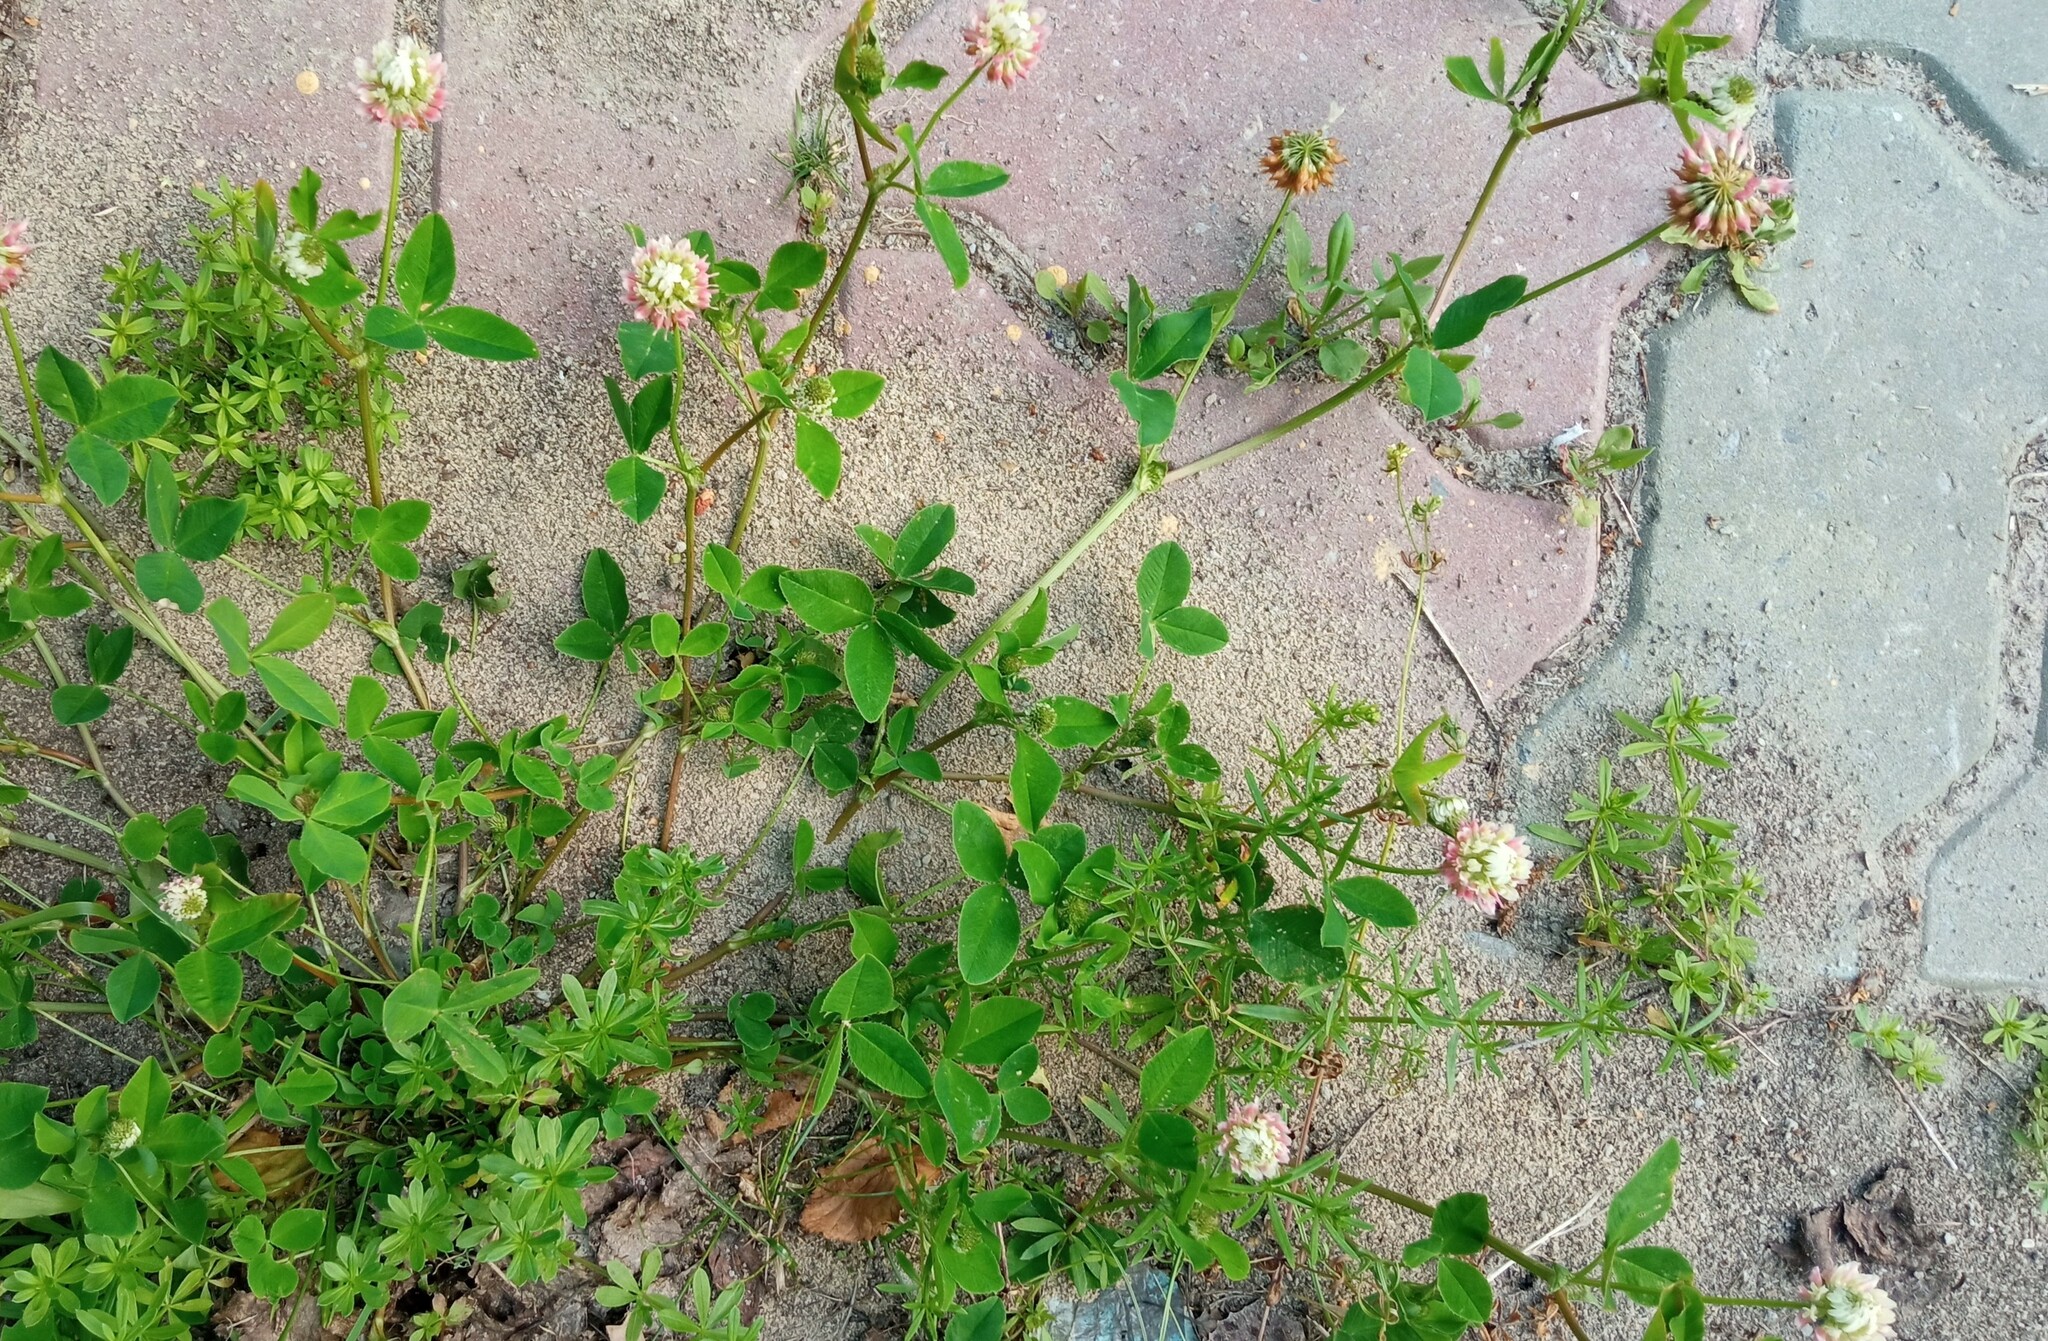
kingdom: Plantae
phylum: Tracheophyta
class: Magnoliopsida
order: Fabales
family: Fabaceae
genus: Trifolium
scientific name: Trifolium hybridum
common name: Alsike clover
